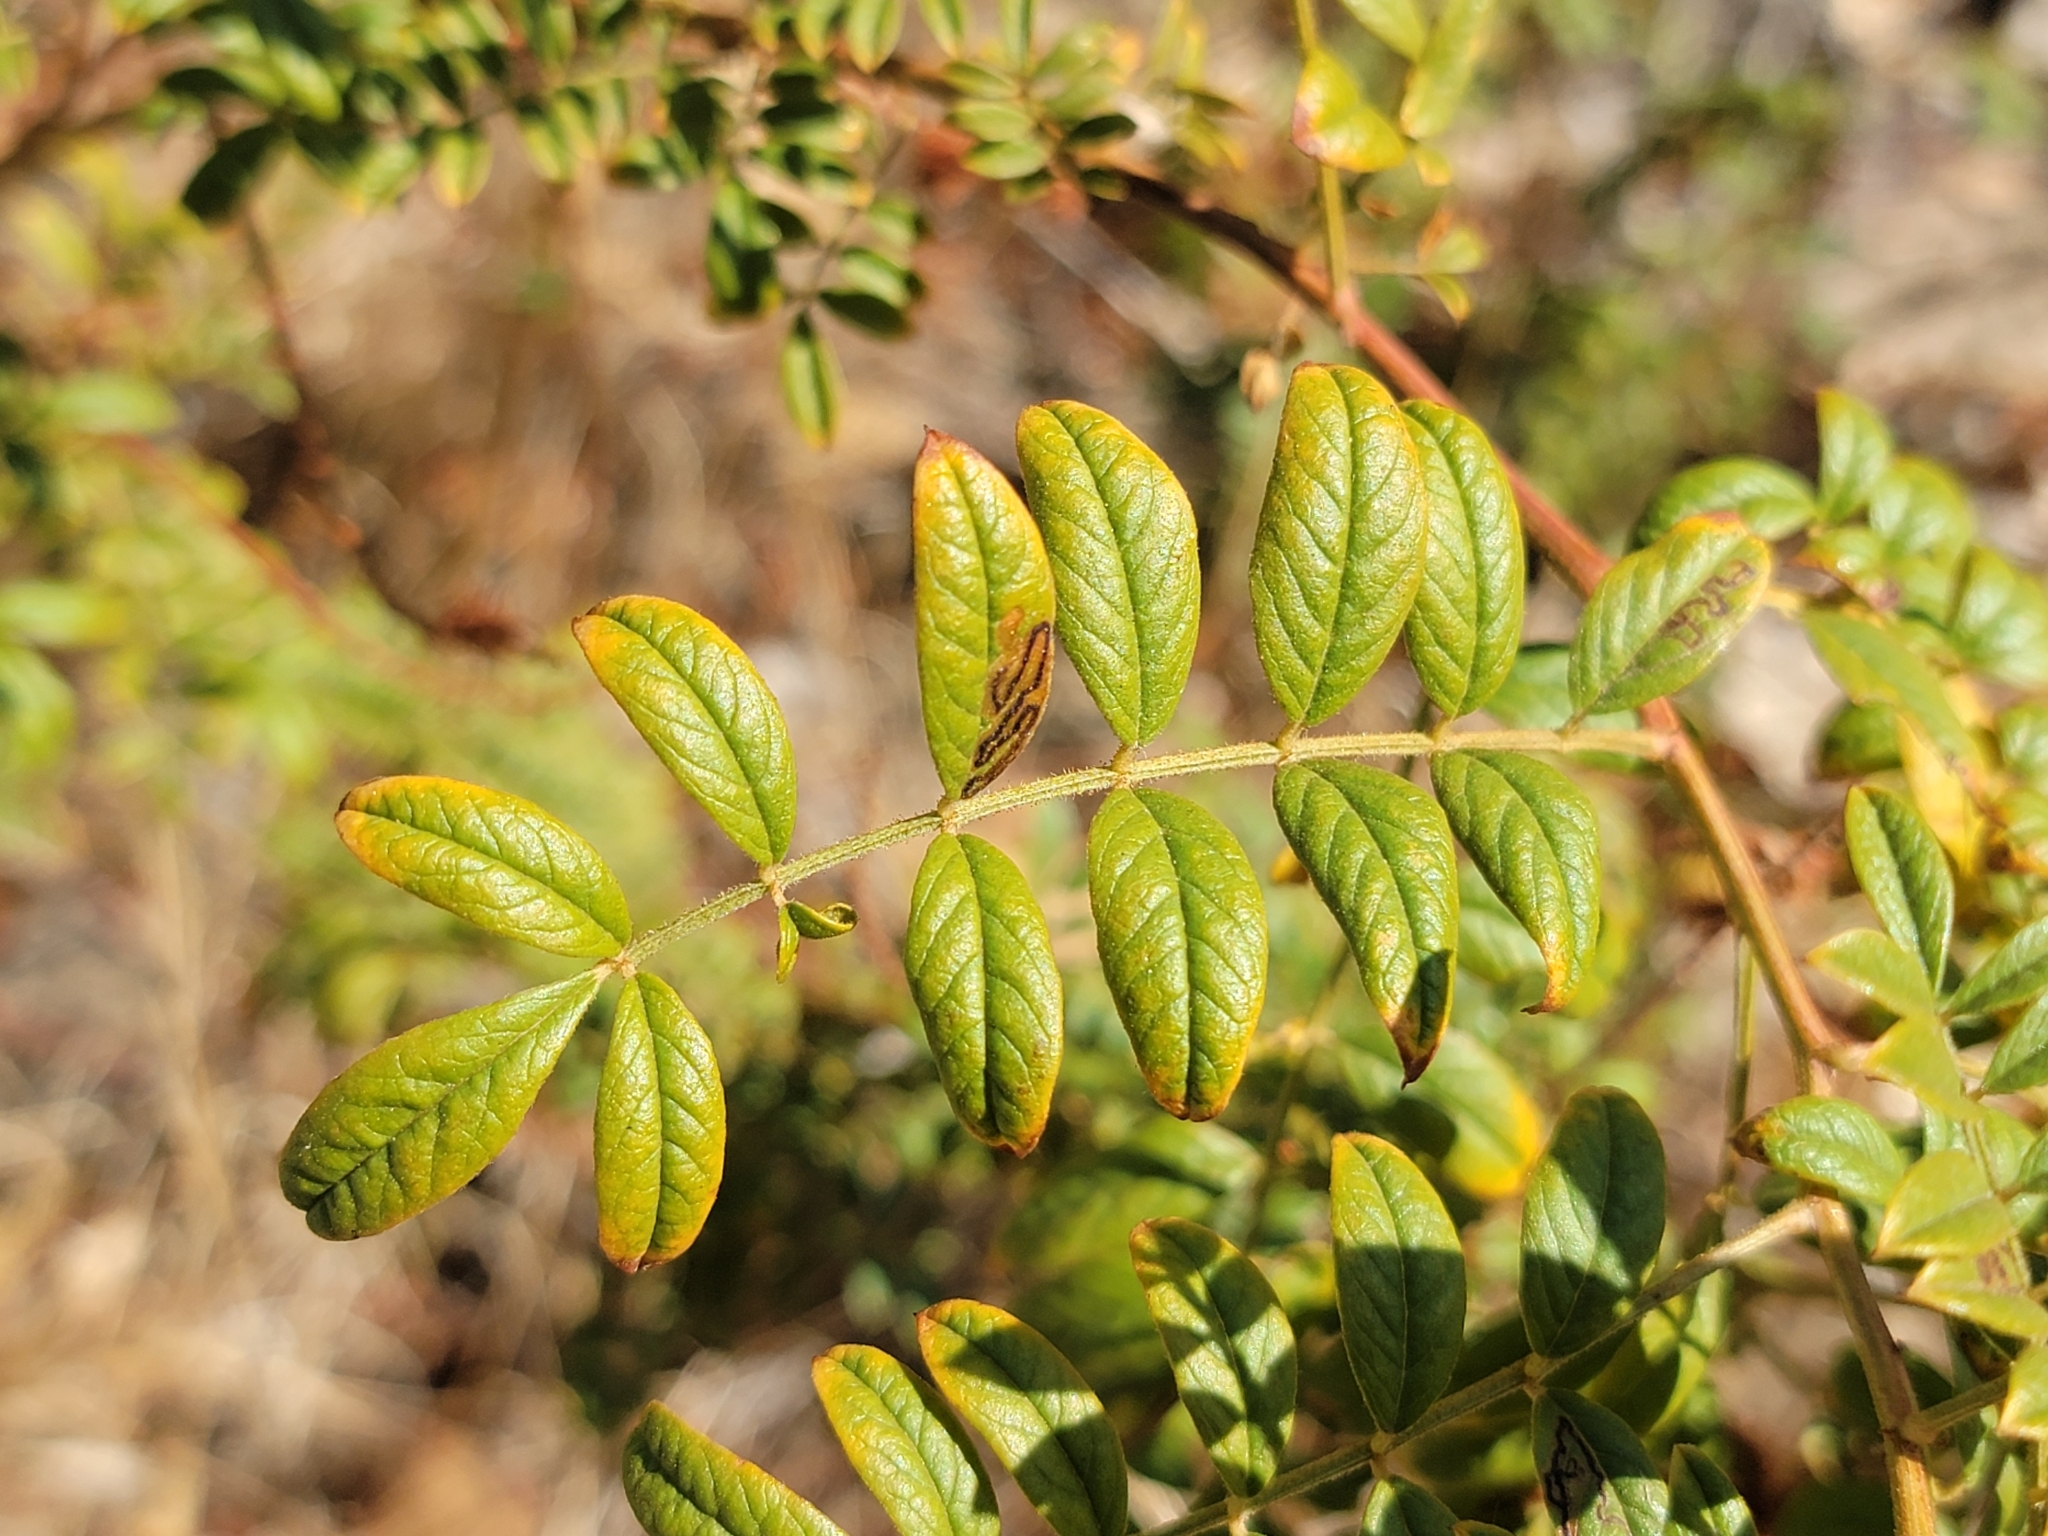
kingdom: Plantae
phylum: Tracheophyta
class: Magnoliopsida
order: Fabales
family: Fabaceae
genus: Glycyrrhiza
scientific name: Glycyrrhiza lepidota
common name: American liquorice
